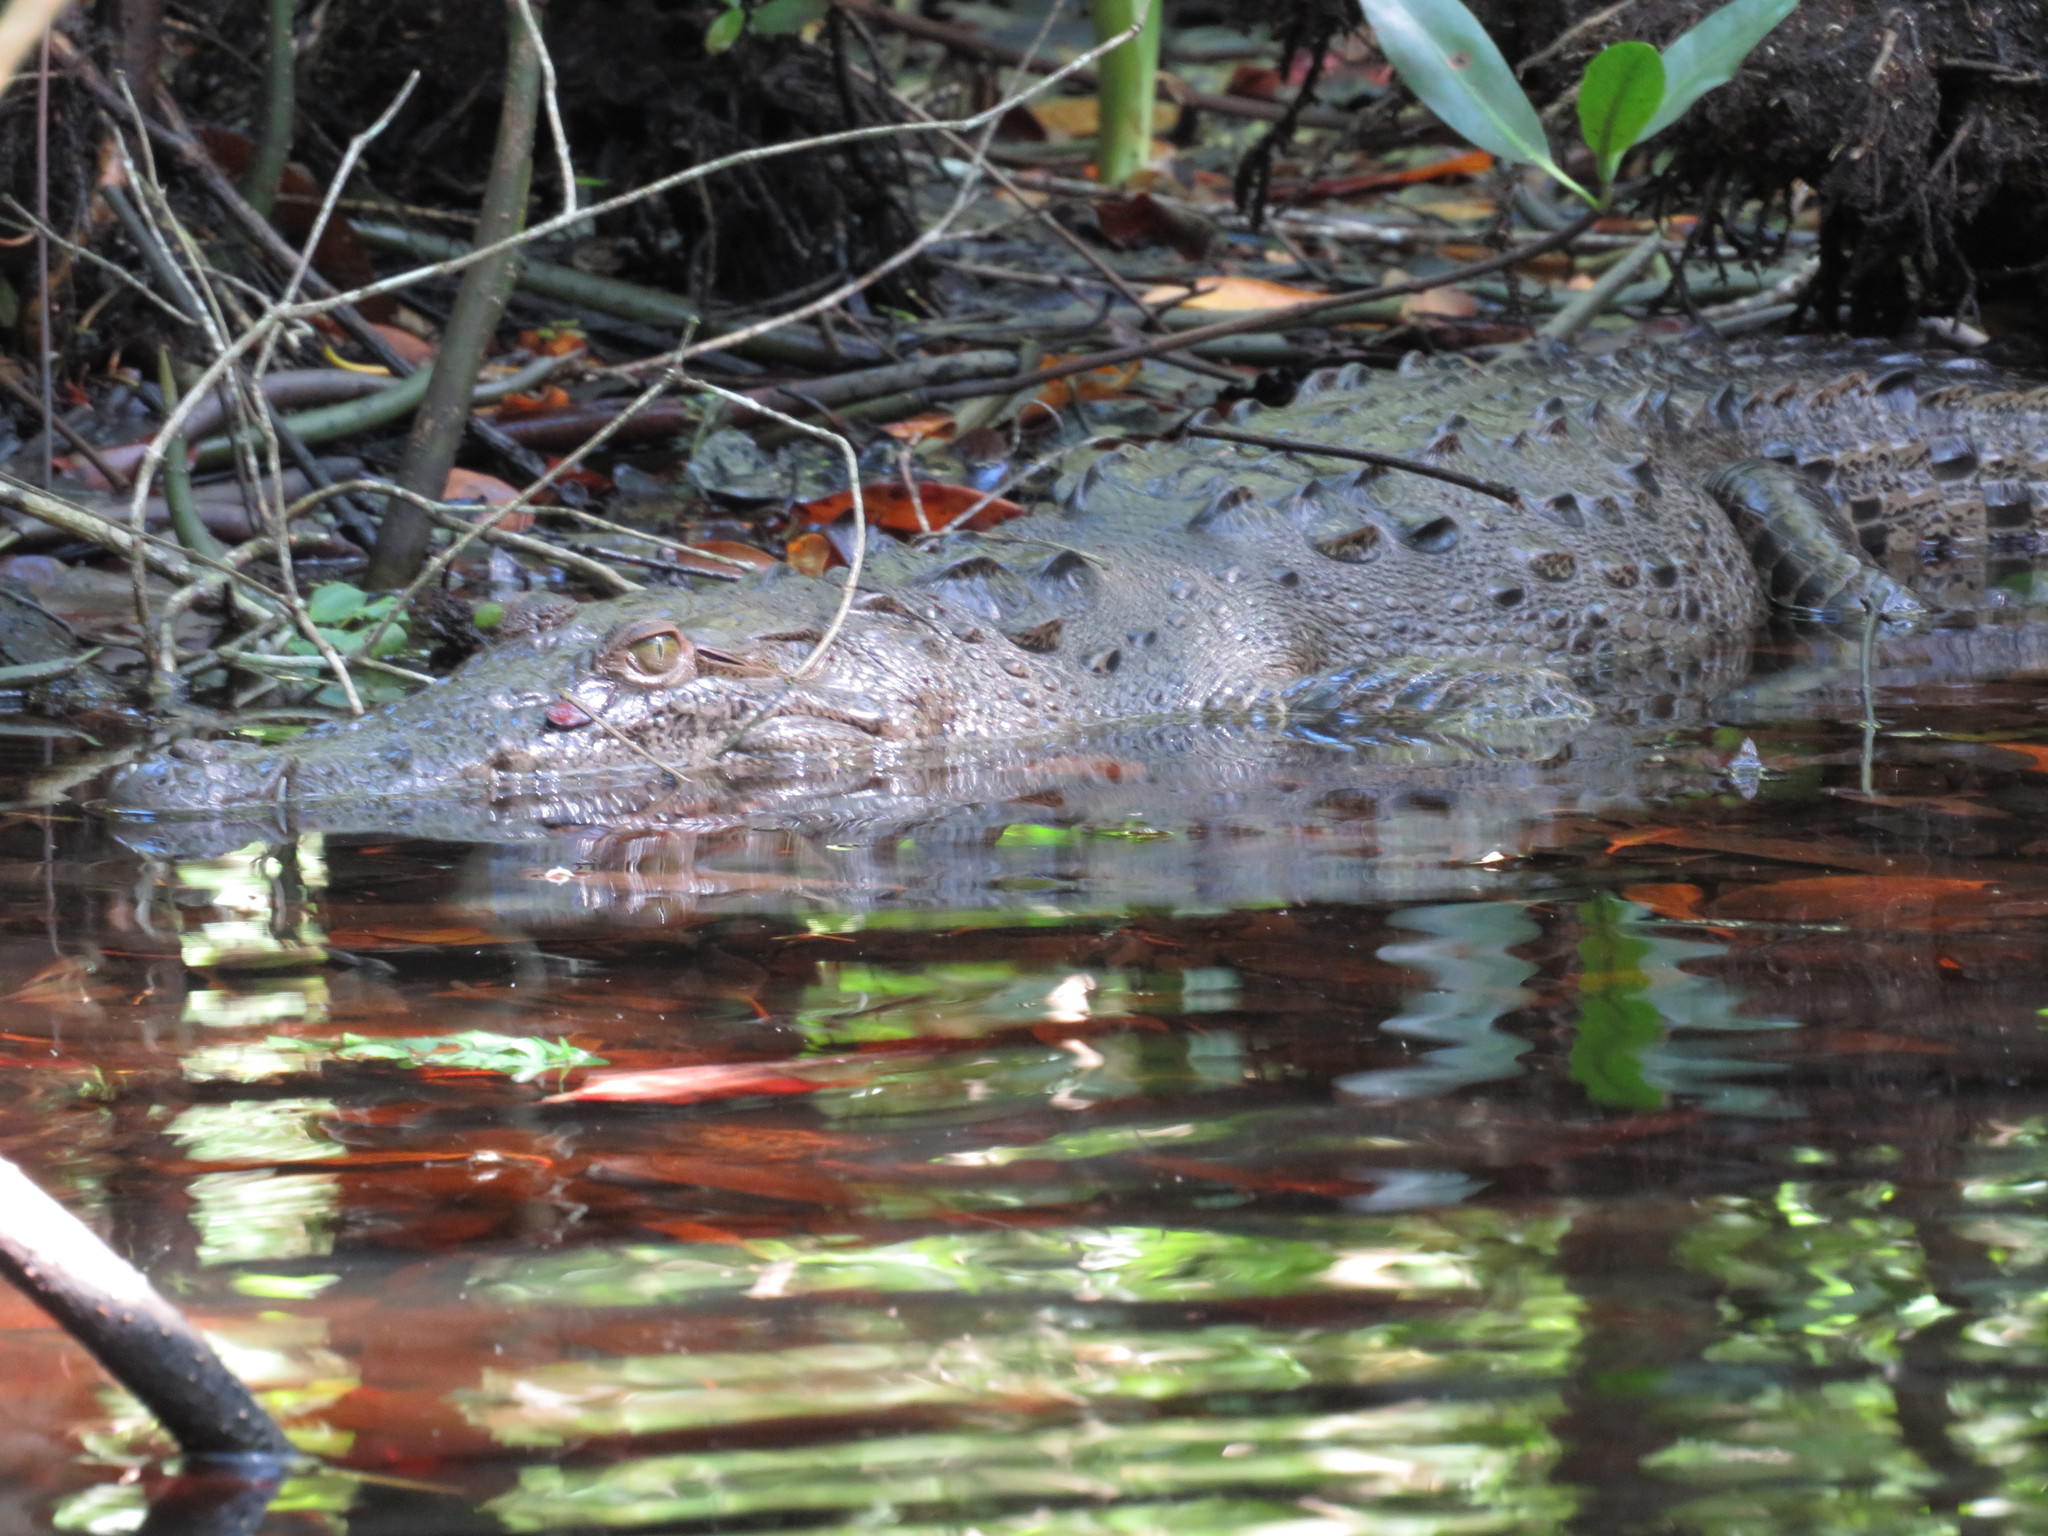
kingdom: Animalia
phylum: Chordata
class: Crocodylia
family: Crocodylidae
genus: Crocodylus
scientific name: Crocodylus acutus
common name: American crocodile
